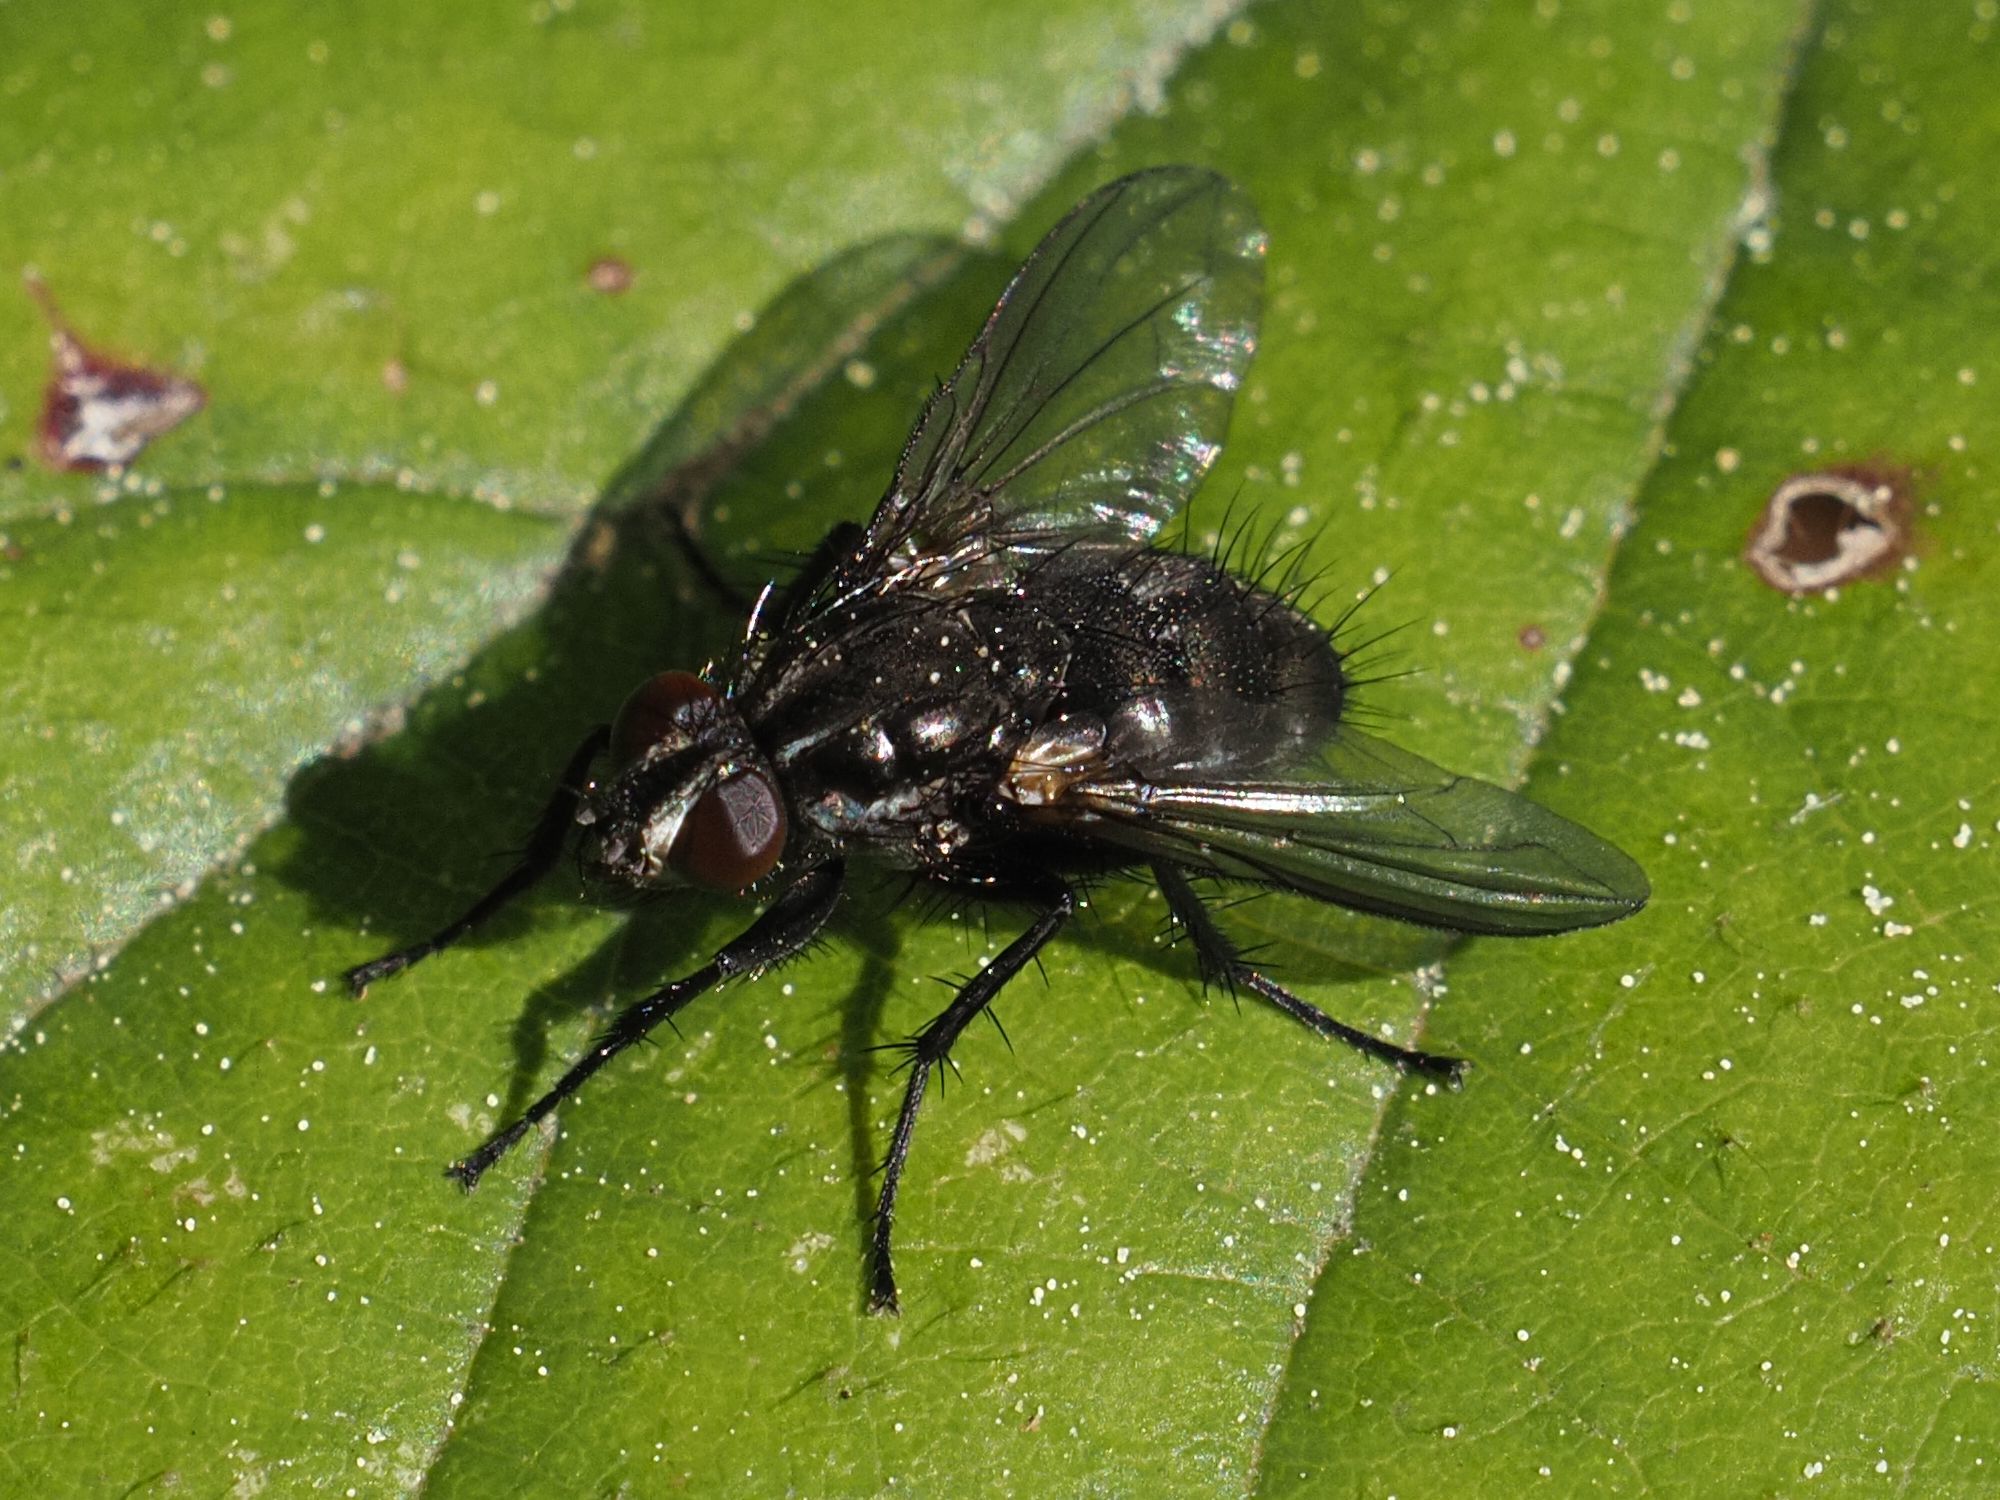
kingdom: Animalia
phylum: Arthropoda
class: Insecta
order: Diptera
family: Calliphoridae
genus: Rhinomorinia
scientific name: Rhinomorinia sarcophagina
